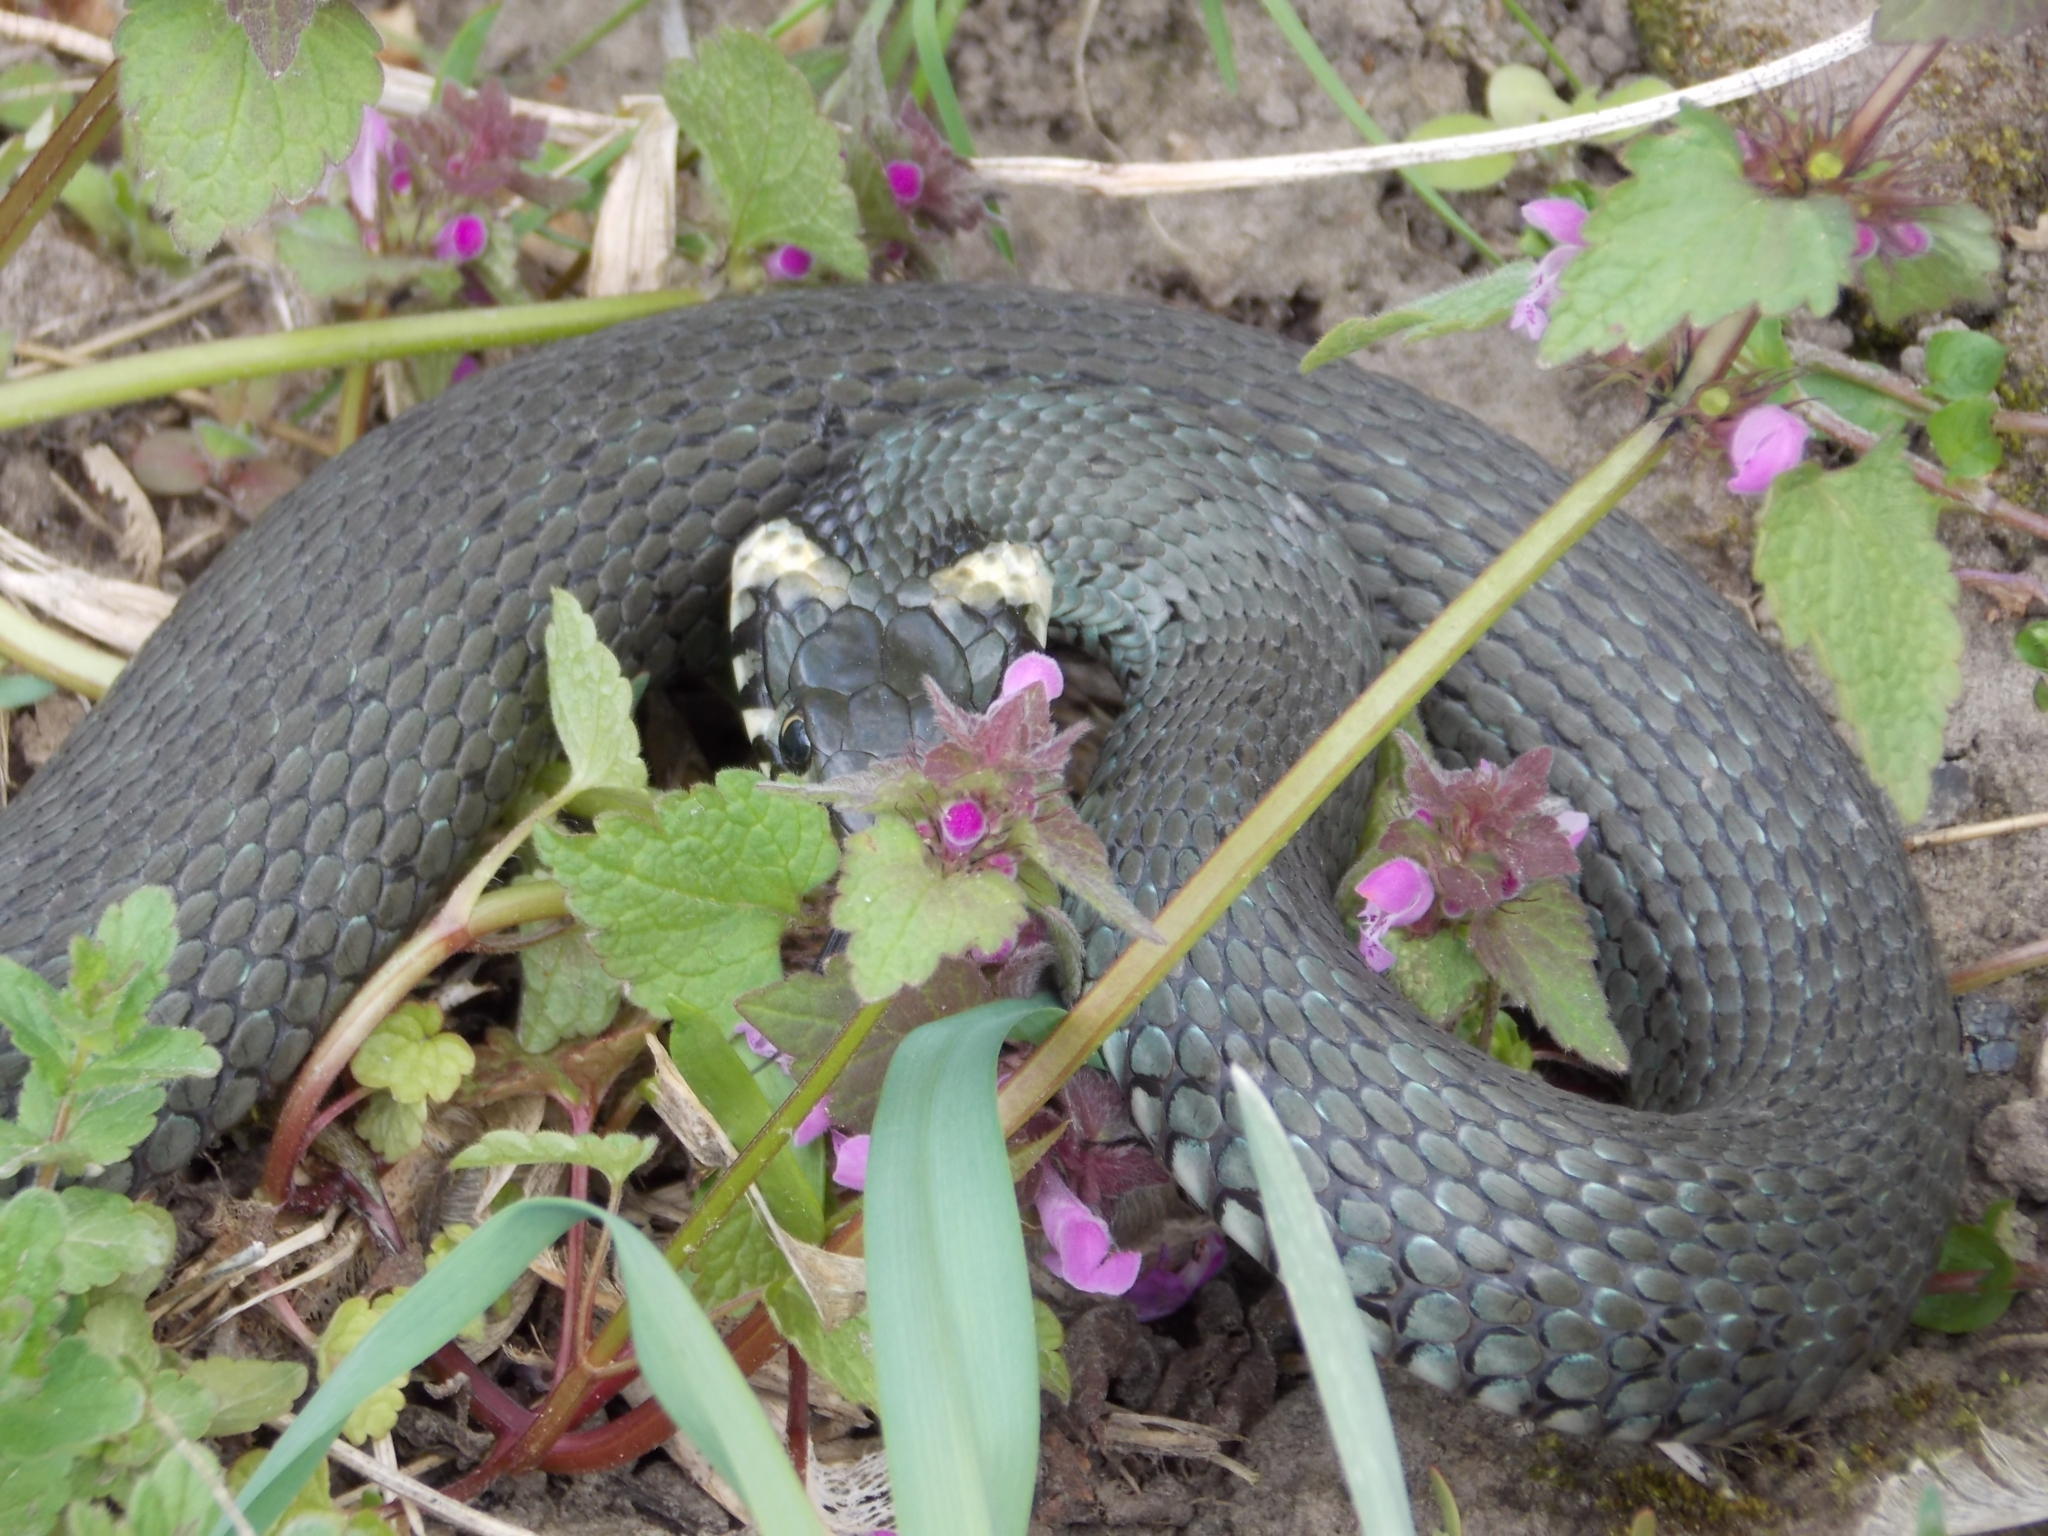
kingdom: Animalia
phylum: Chordata
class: Squamata
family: Colubridae
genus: Natrix
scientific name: Natrix natrix
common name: Grass snake
